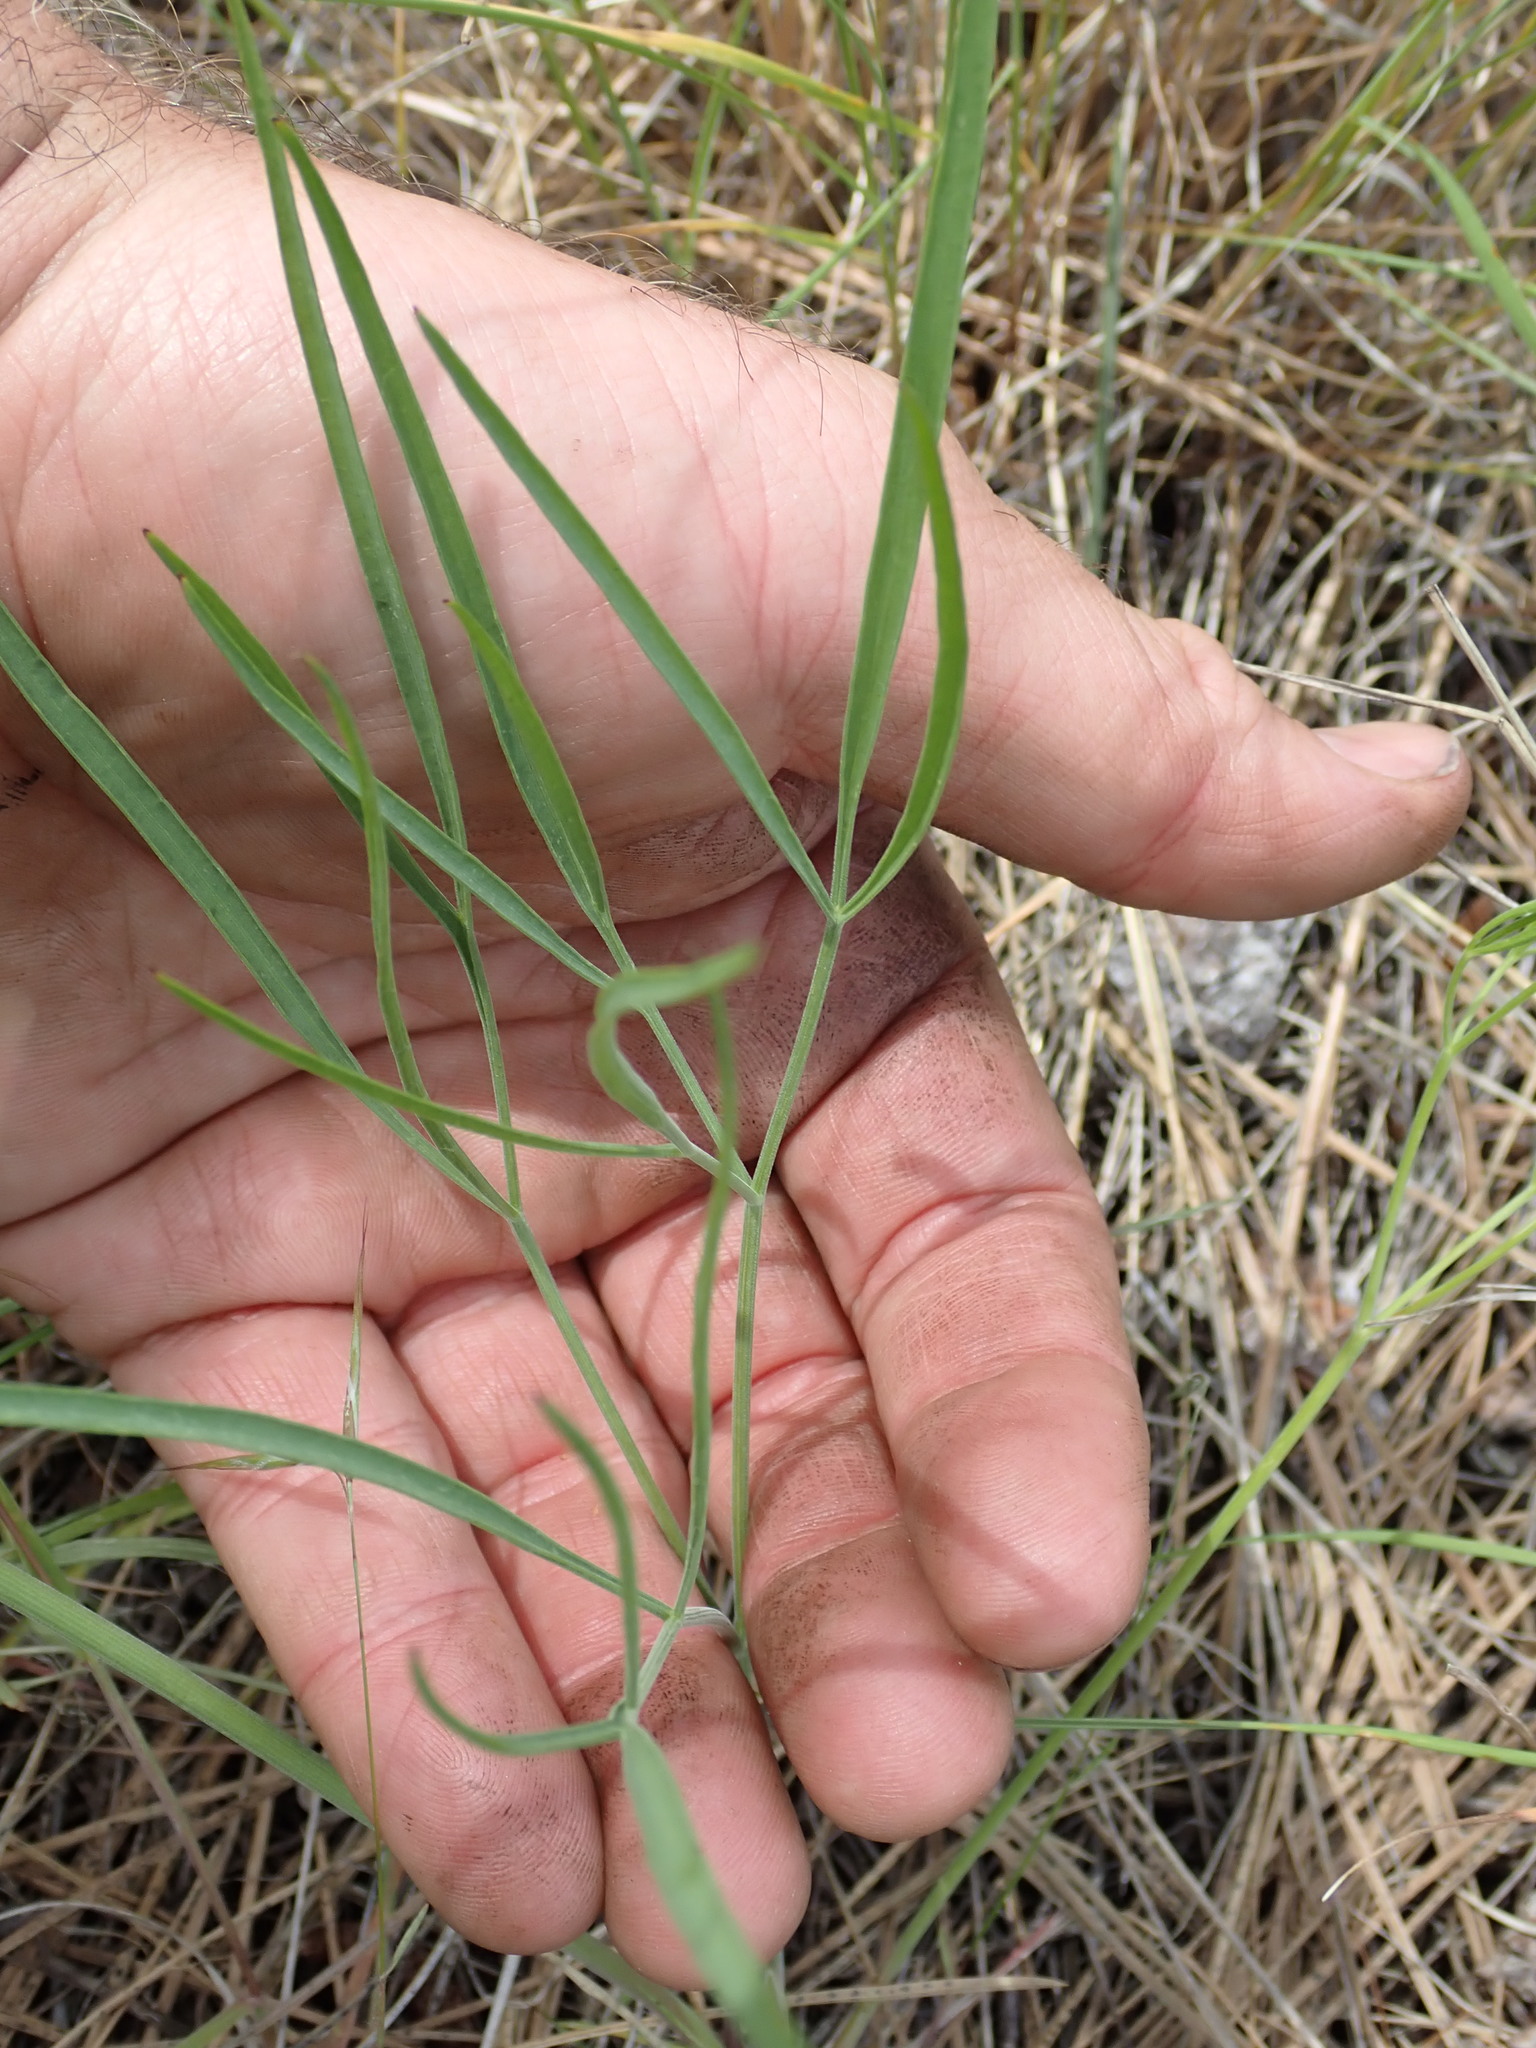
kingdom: Plantae
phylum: Tracheophyta
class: Magnoliopsida
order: Apiales
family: Apiaceae
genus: Lomatium
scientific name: Lomatium triternatum
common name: Ternate lomatium
